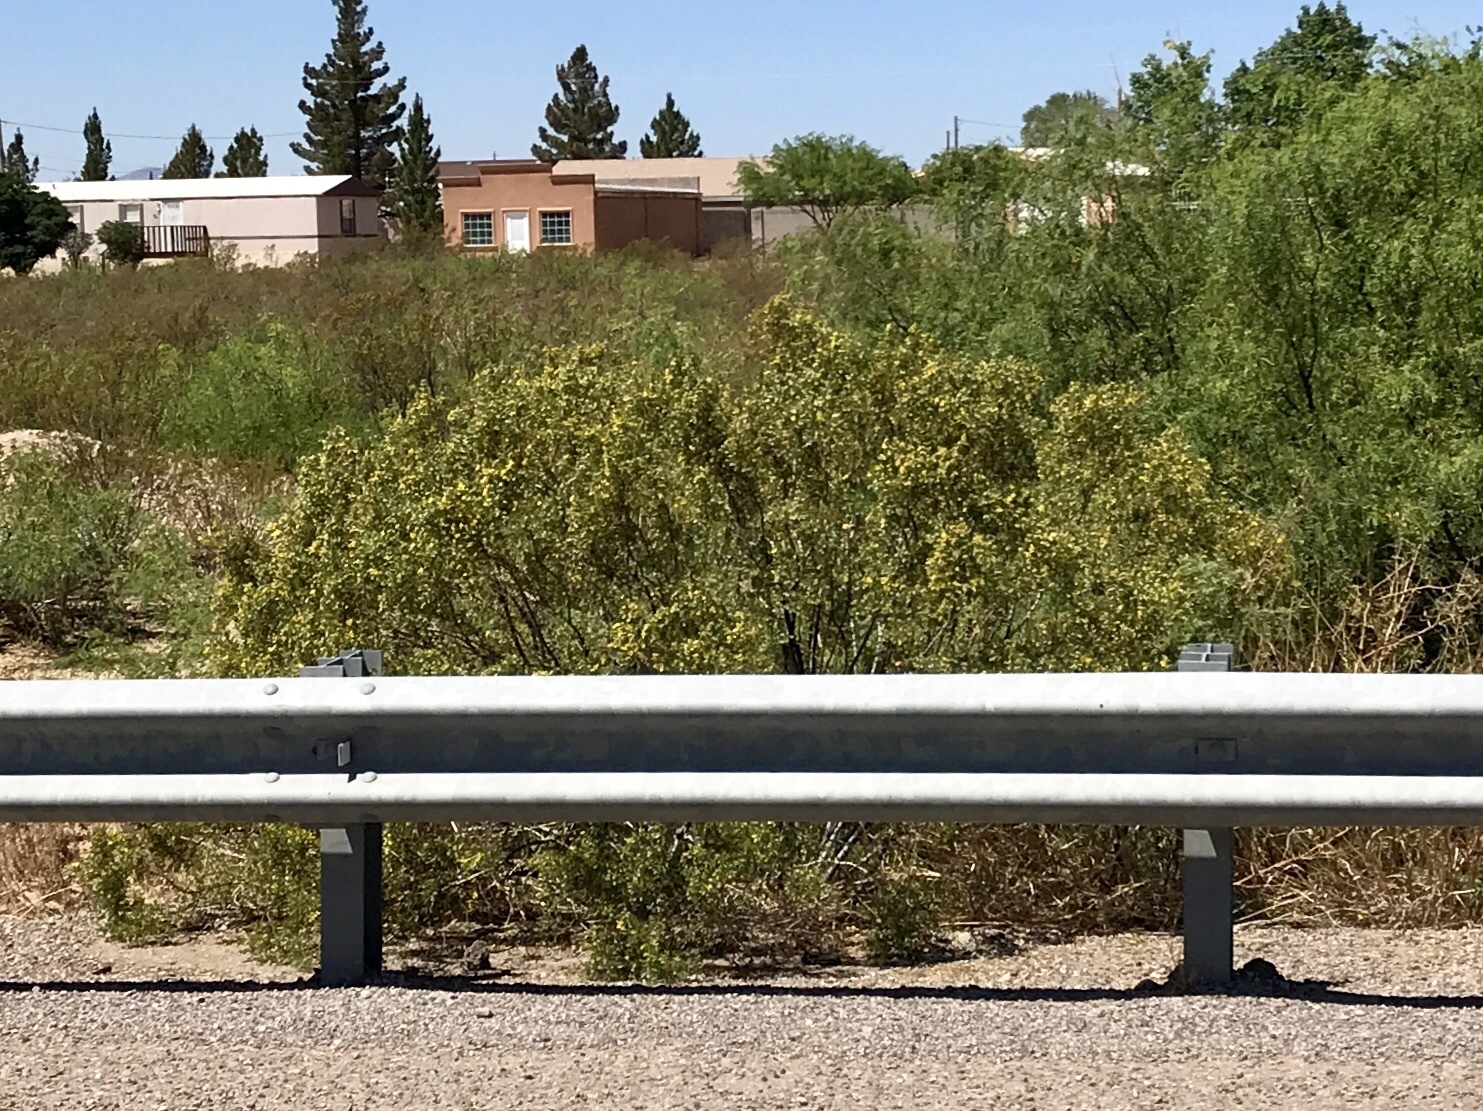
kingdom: Plantae
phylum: Tracheophyta
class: Magnoliopsida
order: Zygophyllales
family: Zygophyllaceae
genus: Larrea
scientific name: Larrea tridentata
